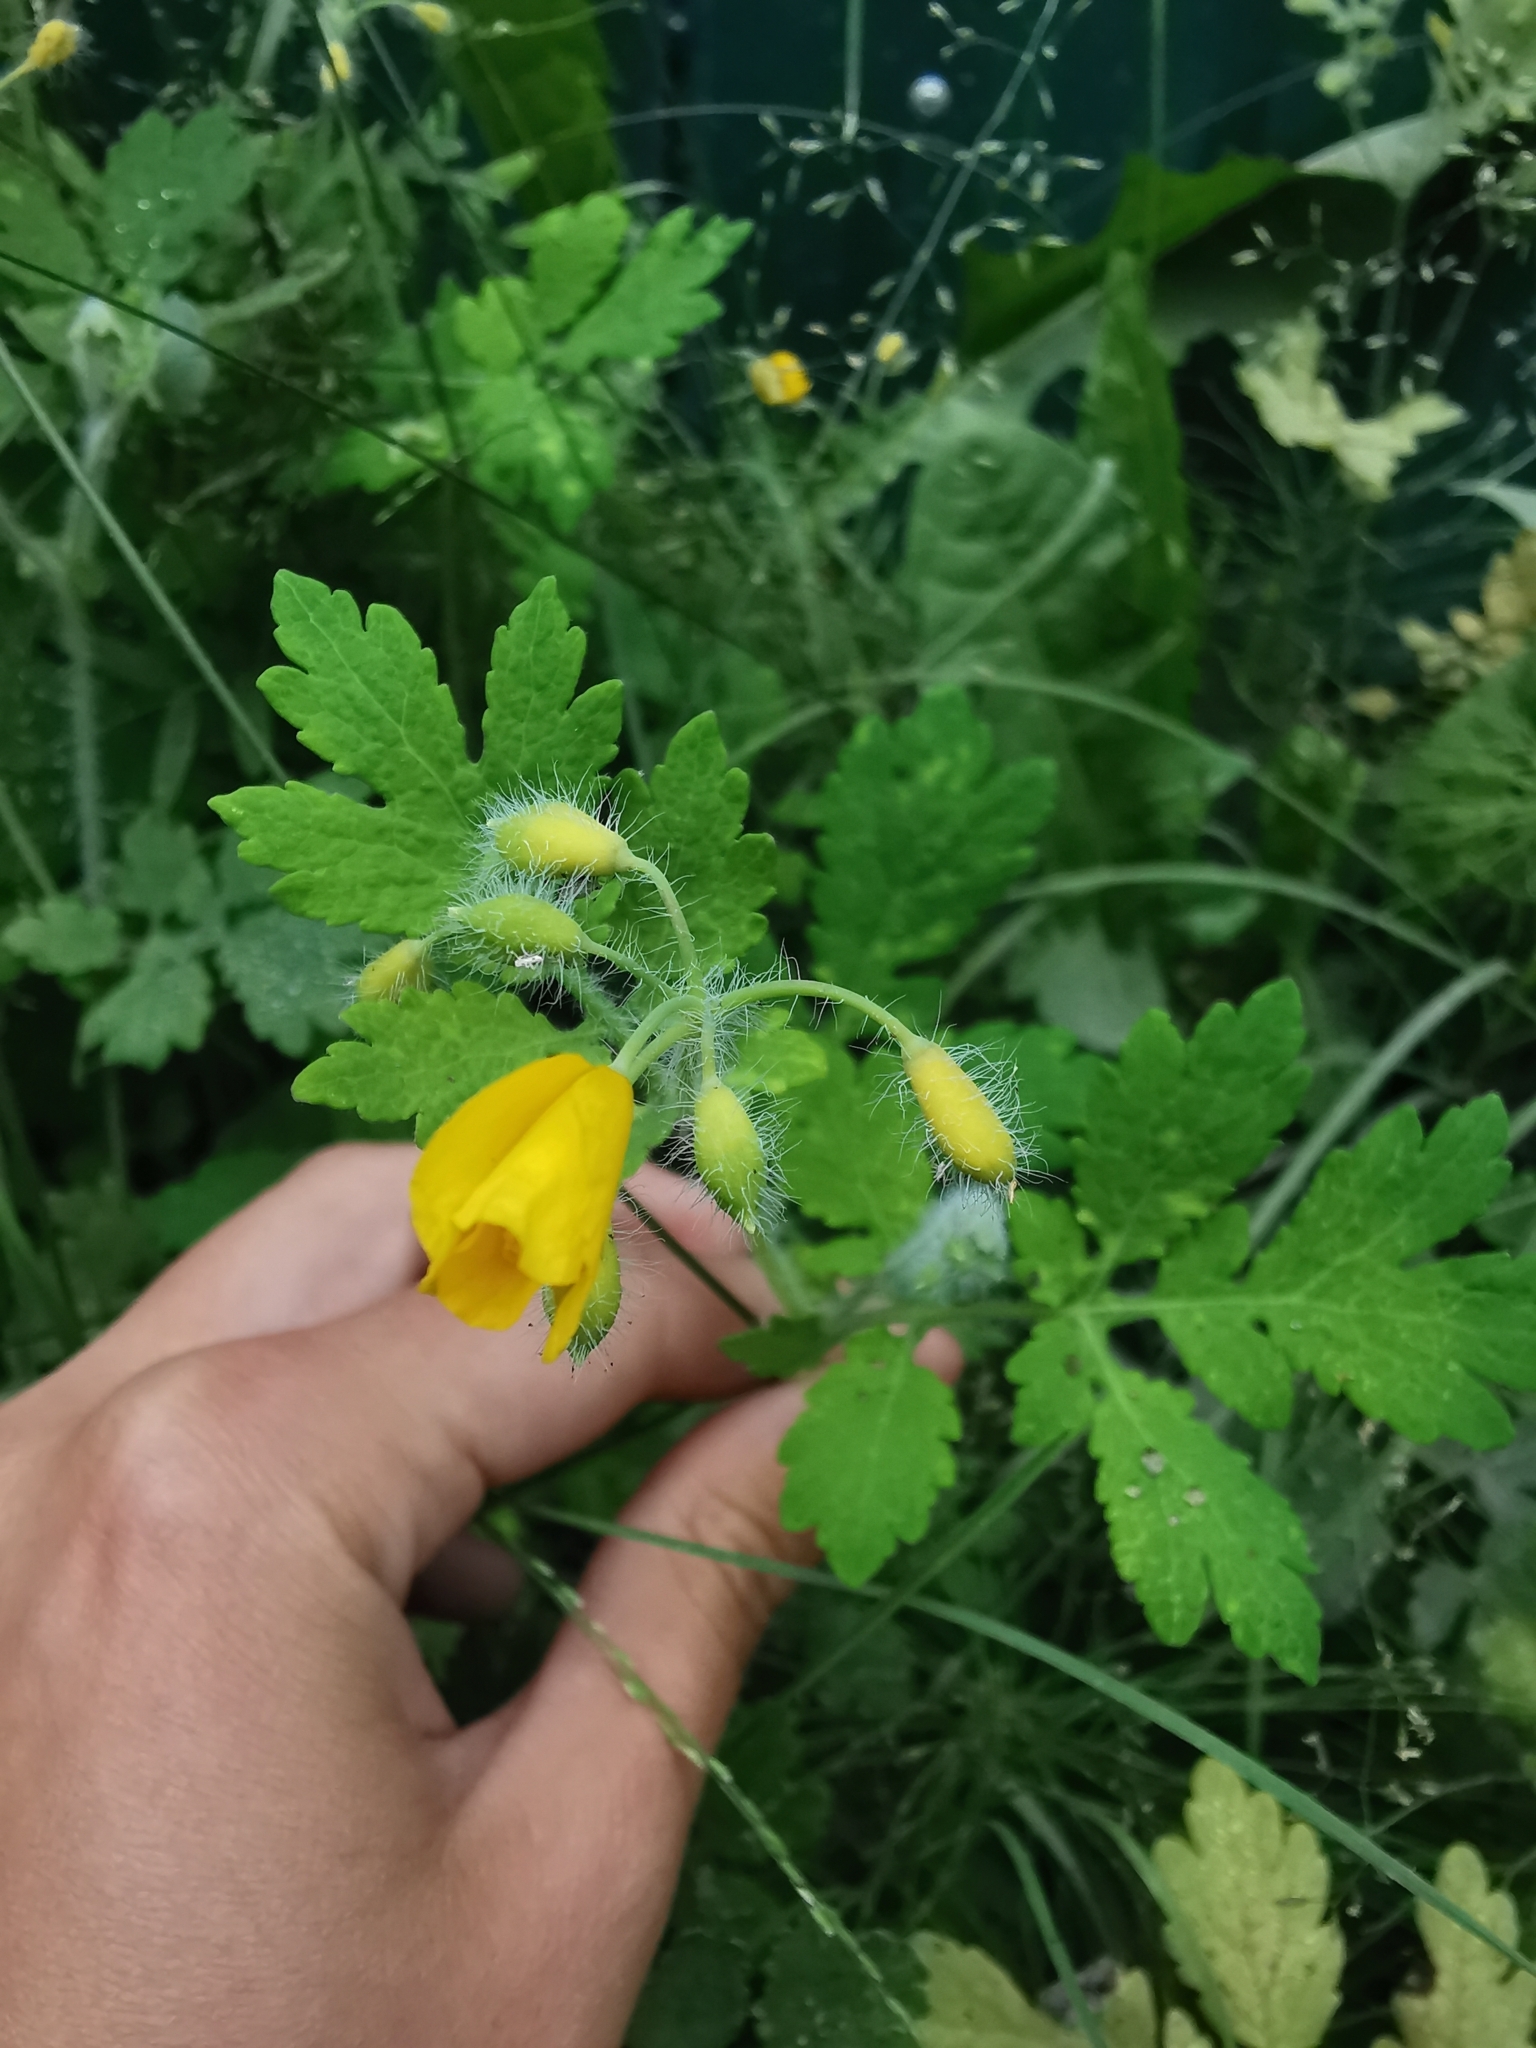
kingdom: Plantae
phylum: Tracheophyta
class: Magnoliopsida
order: Ranunculales
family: Papaveraceae
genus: Chelidonium
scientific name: Chelidonium majus
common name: Greater celandine
